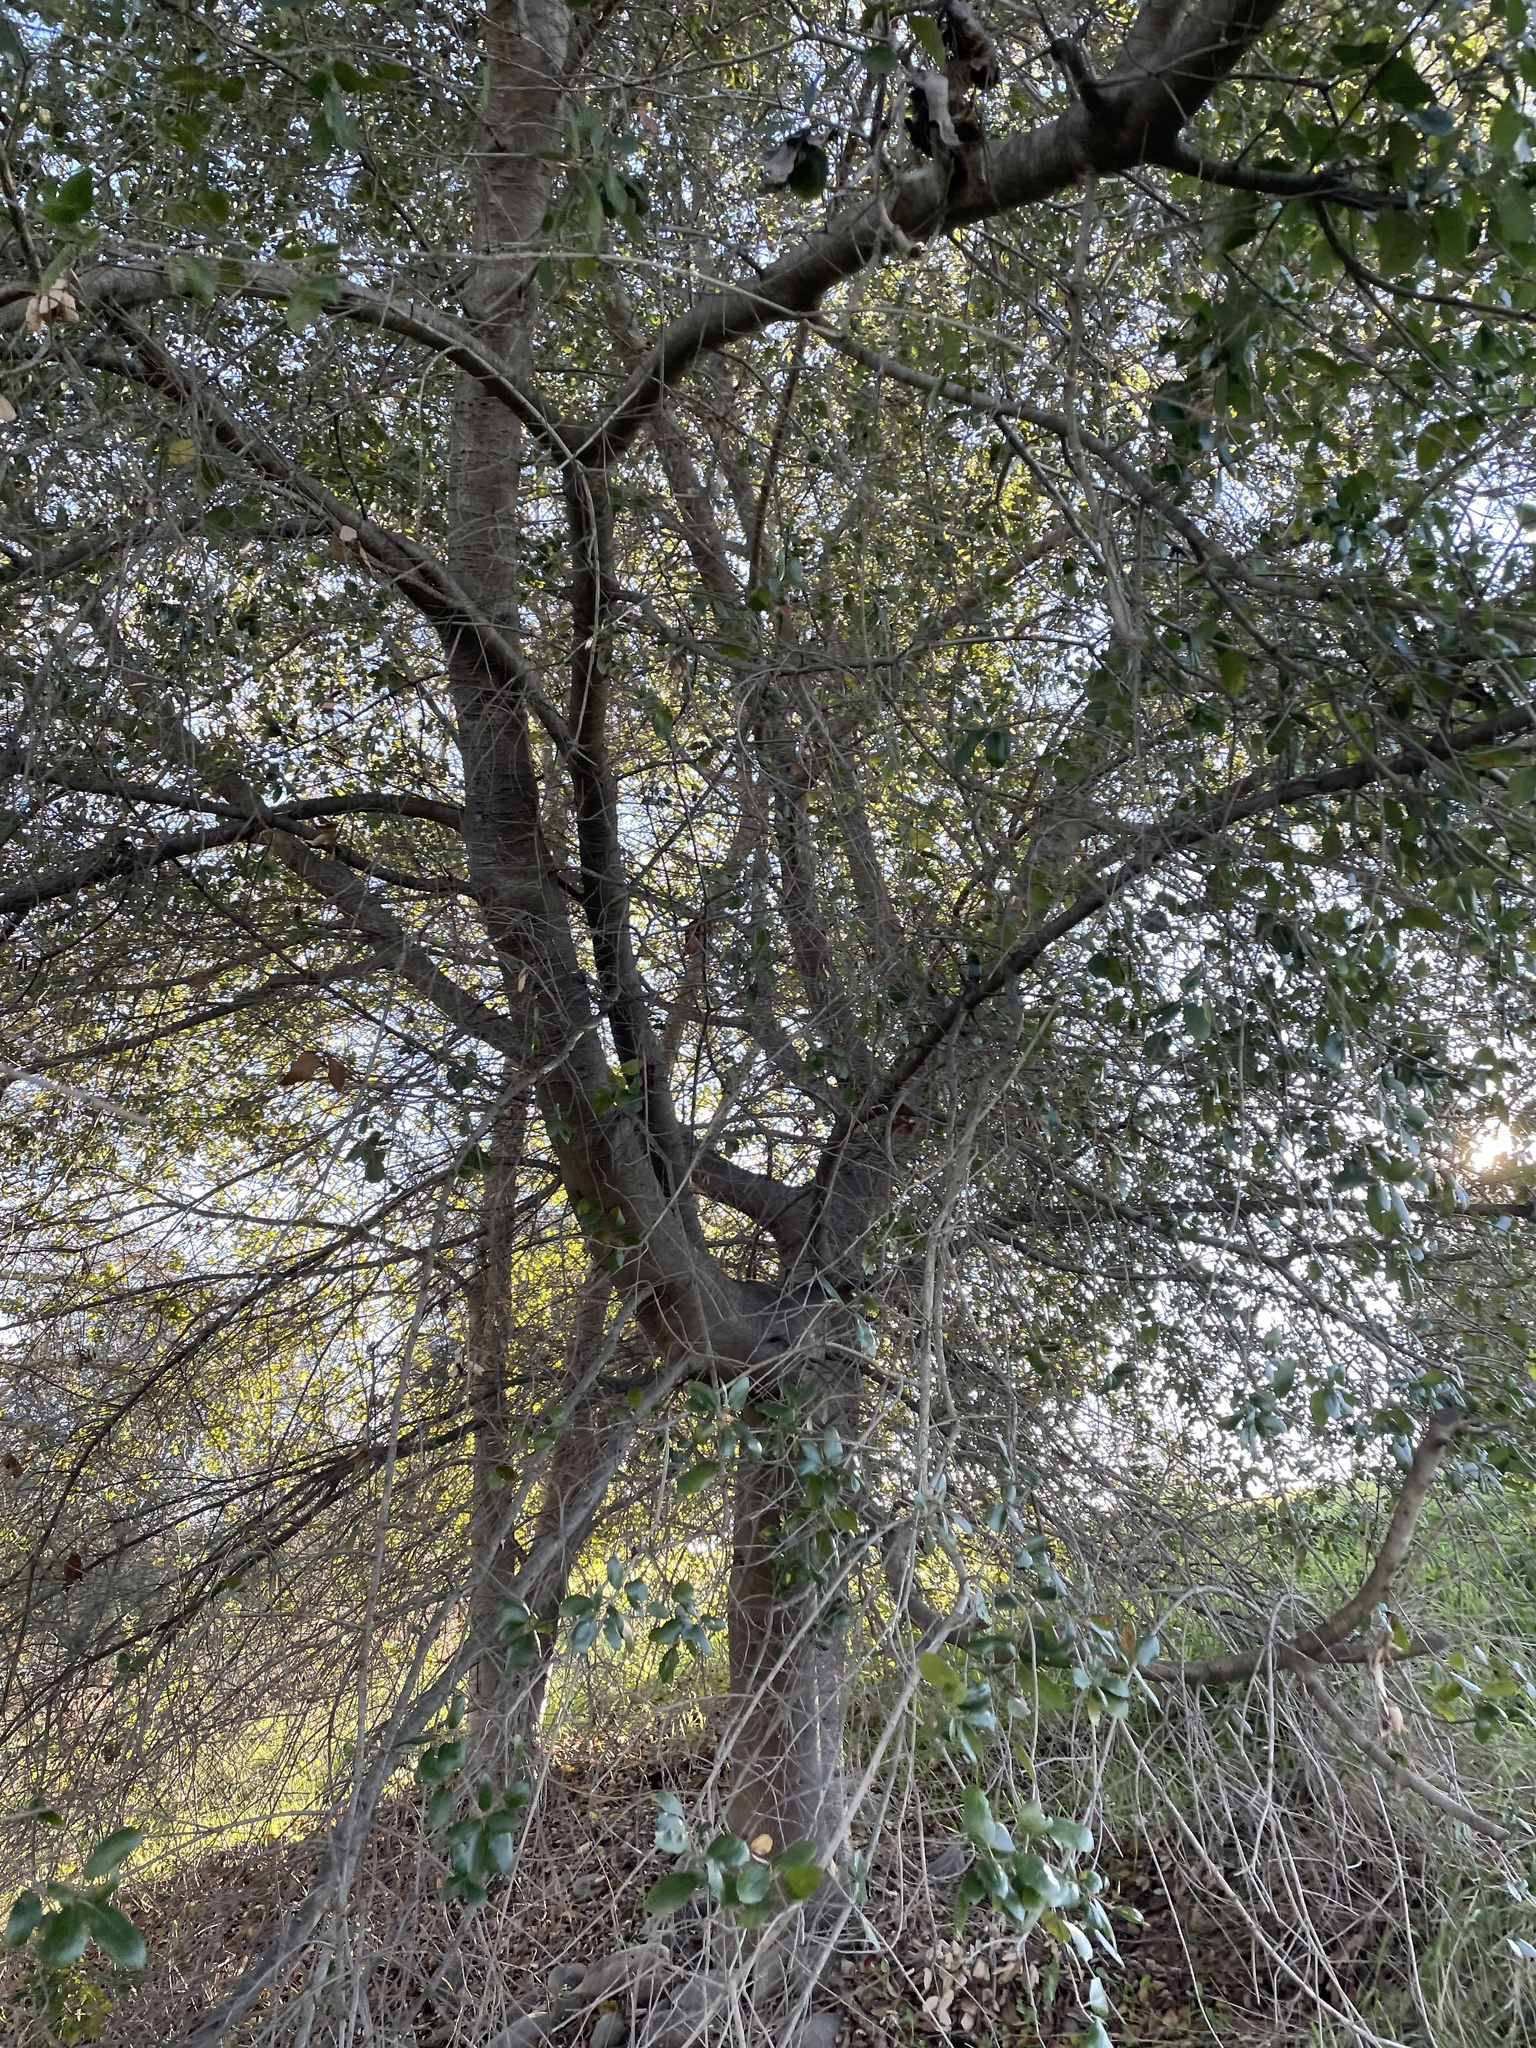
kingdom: Plantae
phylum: Tracheophyta
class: Magnoliopsida
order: Fagales
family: Fagaceae
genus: Quercus
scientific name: Quercus agrifolia
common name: California live oak
